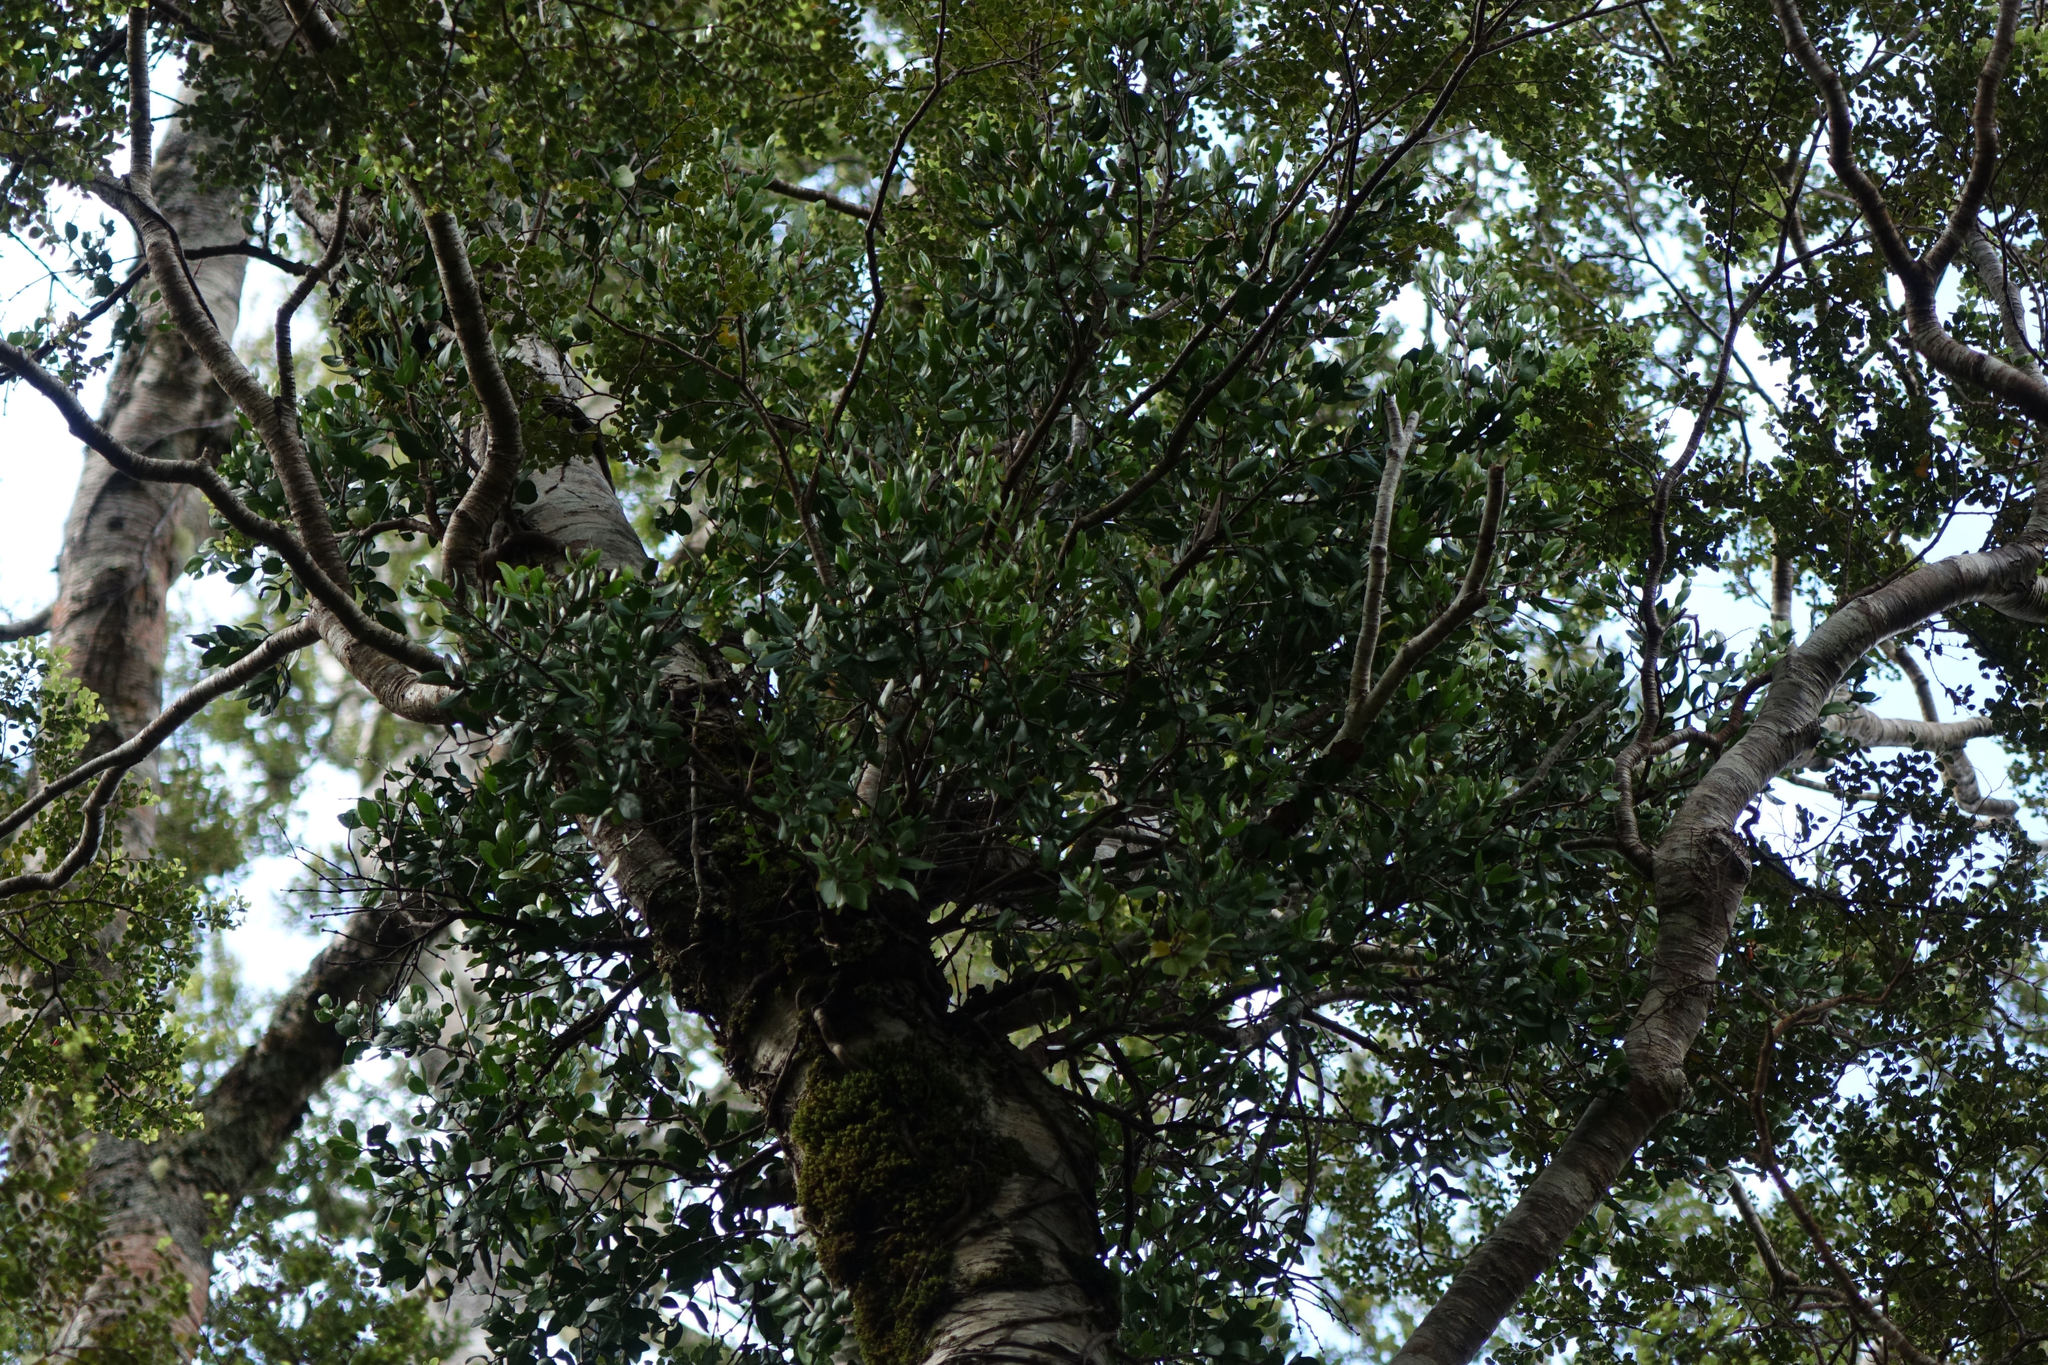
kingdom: Plantae
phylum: Tracheophyta
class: Magnoliopsida
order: Santalales
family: Loranthaceae
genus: Peraxilla
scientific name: Peraxilla colensoi
